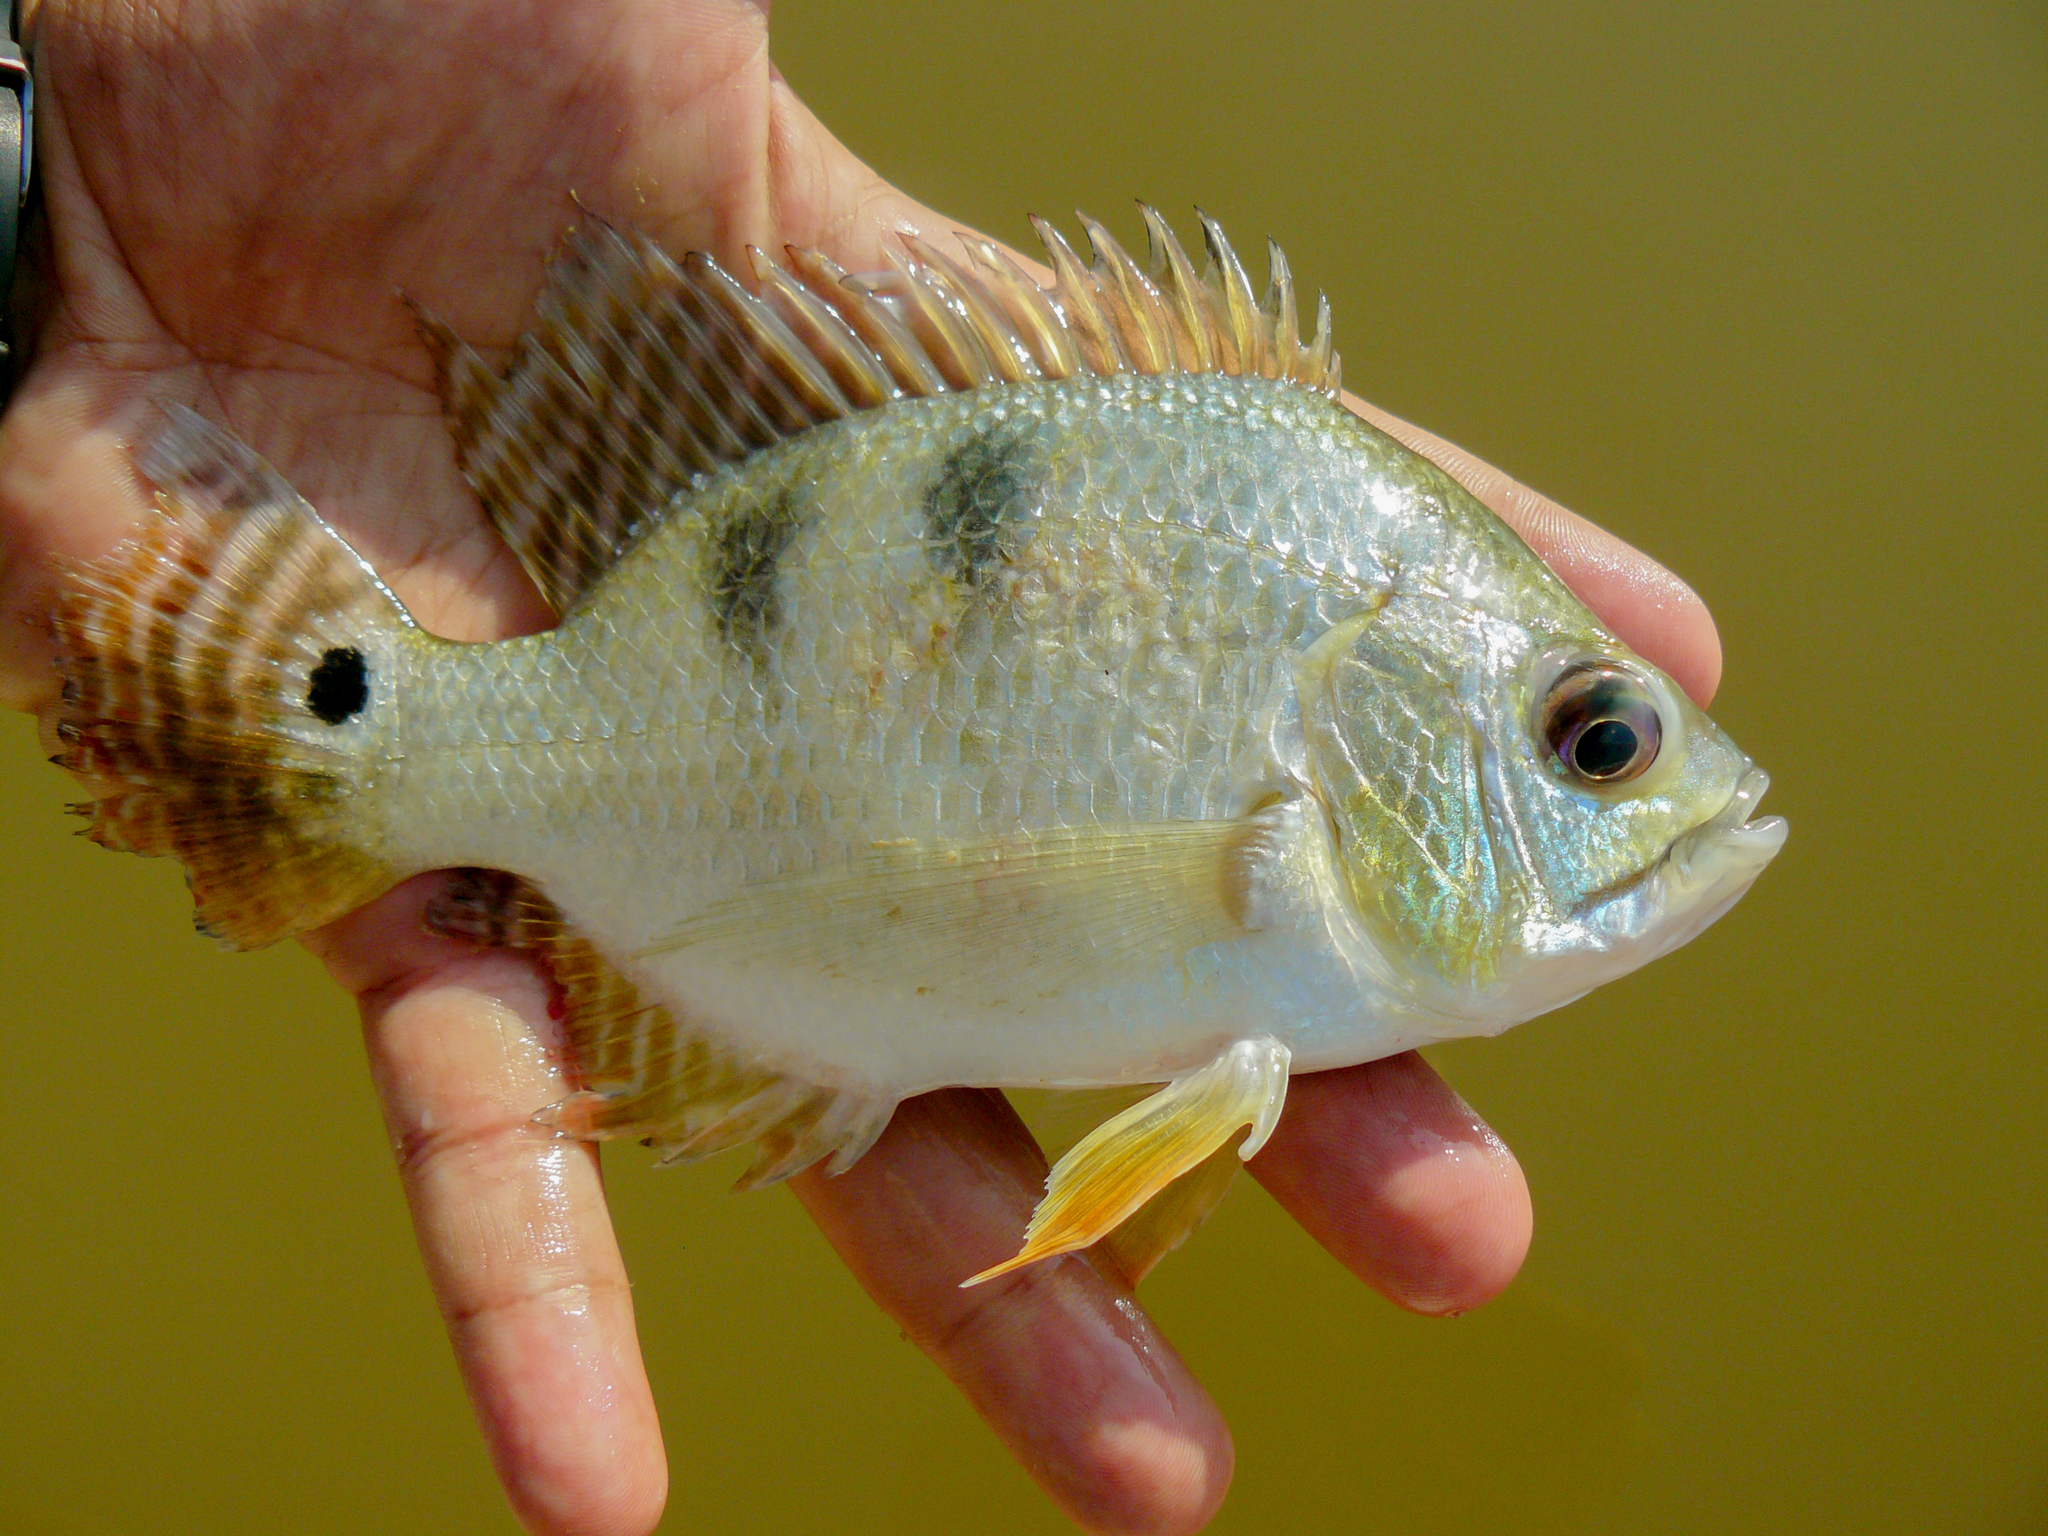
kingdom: Animalia
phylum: Chordata
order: Perciformes
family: Cichlidae
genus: Chaetobranchus
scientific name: Chaetobranchus semifasciatus
